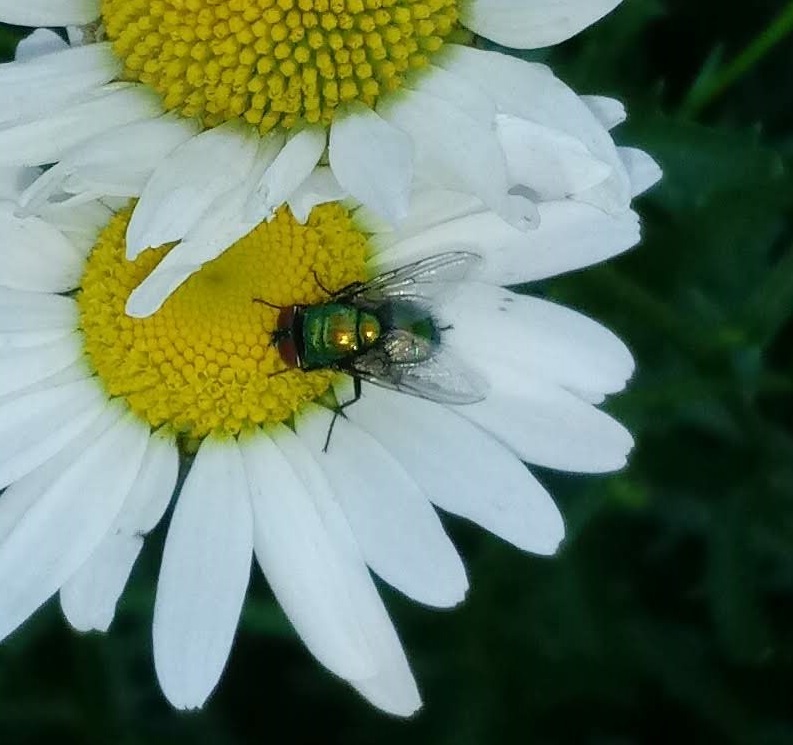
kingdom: Animalia
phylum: Arthropoda
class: Insecta
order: Diptera
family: Calliphoridae
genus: Lucilia
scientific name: Lucilia sericata
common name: Blow fly
